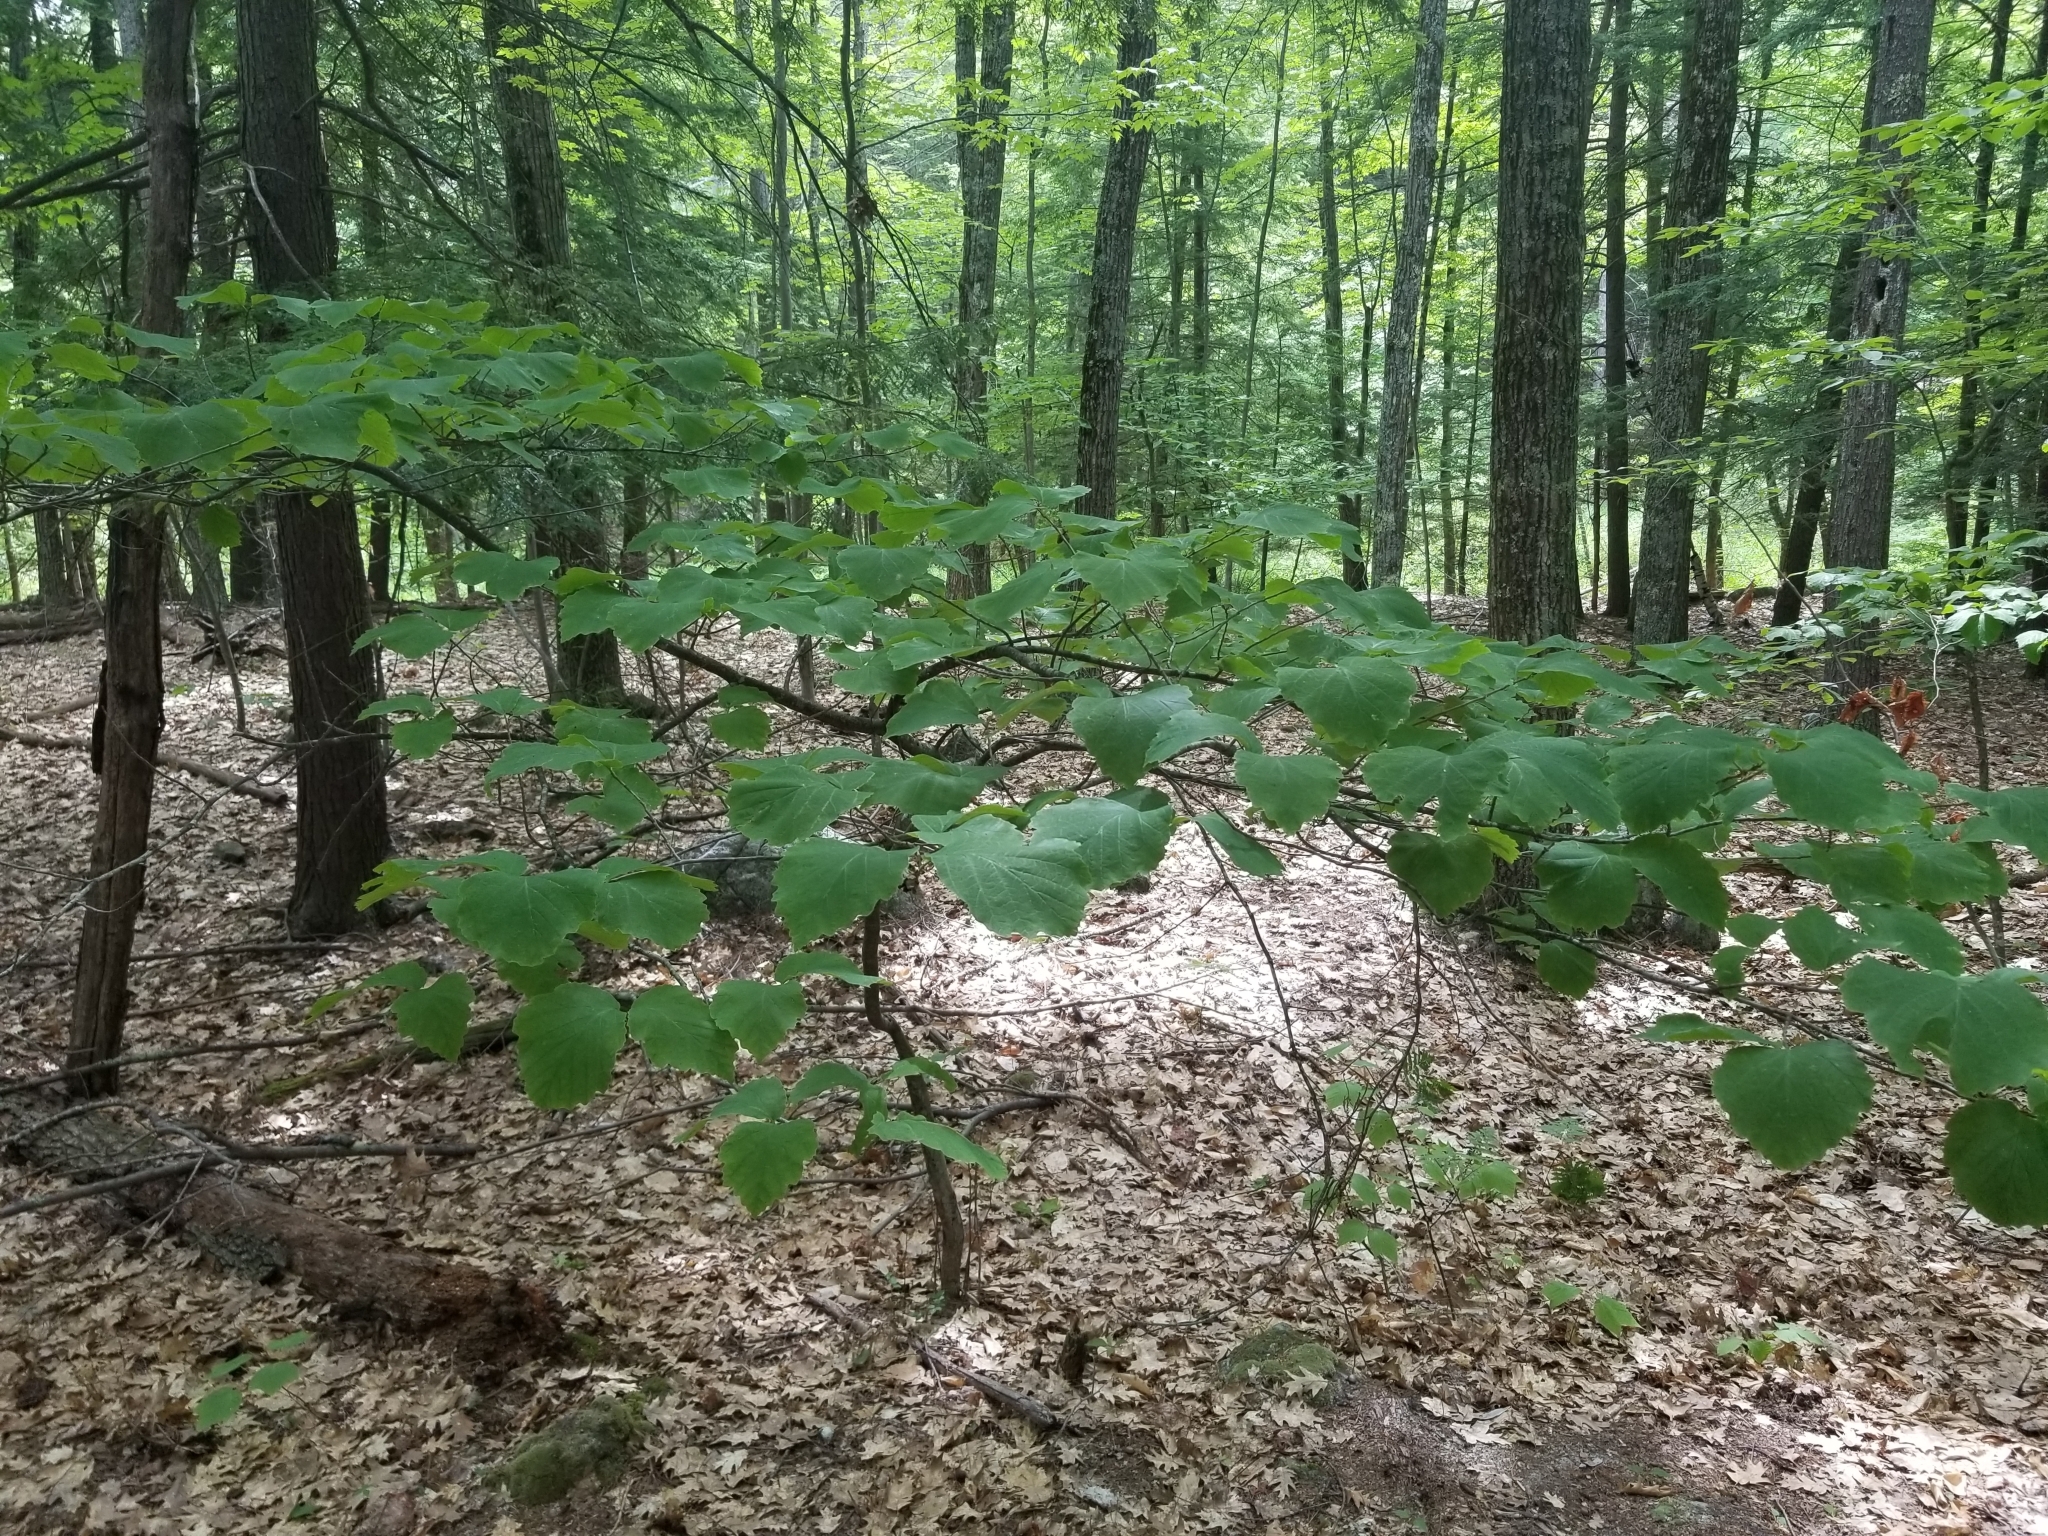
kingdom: Plantae
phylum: Tracheophyta
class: Magnoliopsida
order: Saxifragales
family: Hamamelidaceae
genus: Hamamelis
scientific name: Hamamelis virginiana
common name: Witch-hazel
